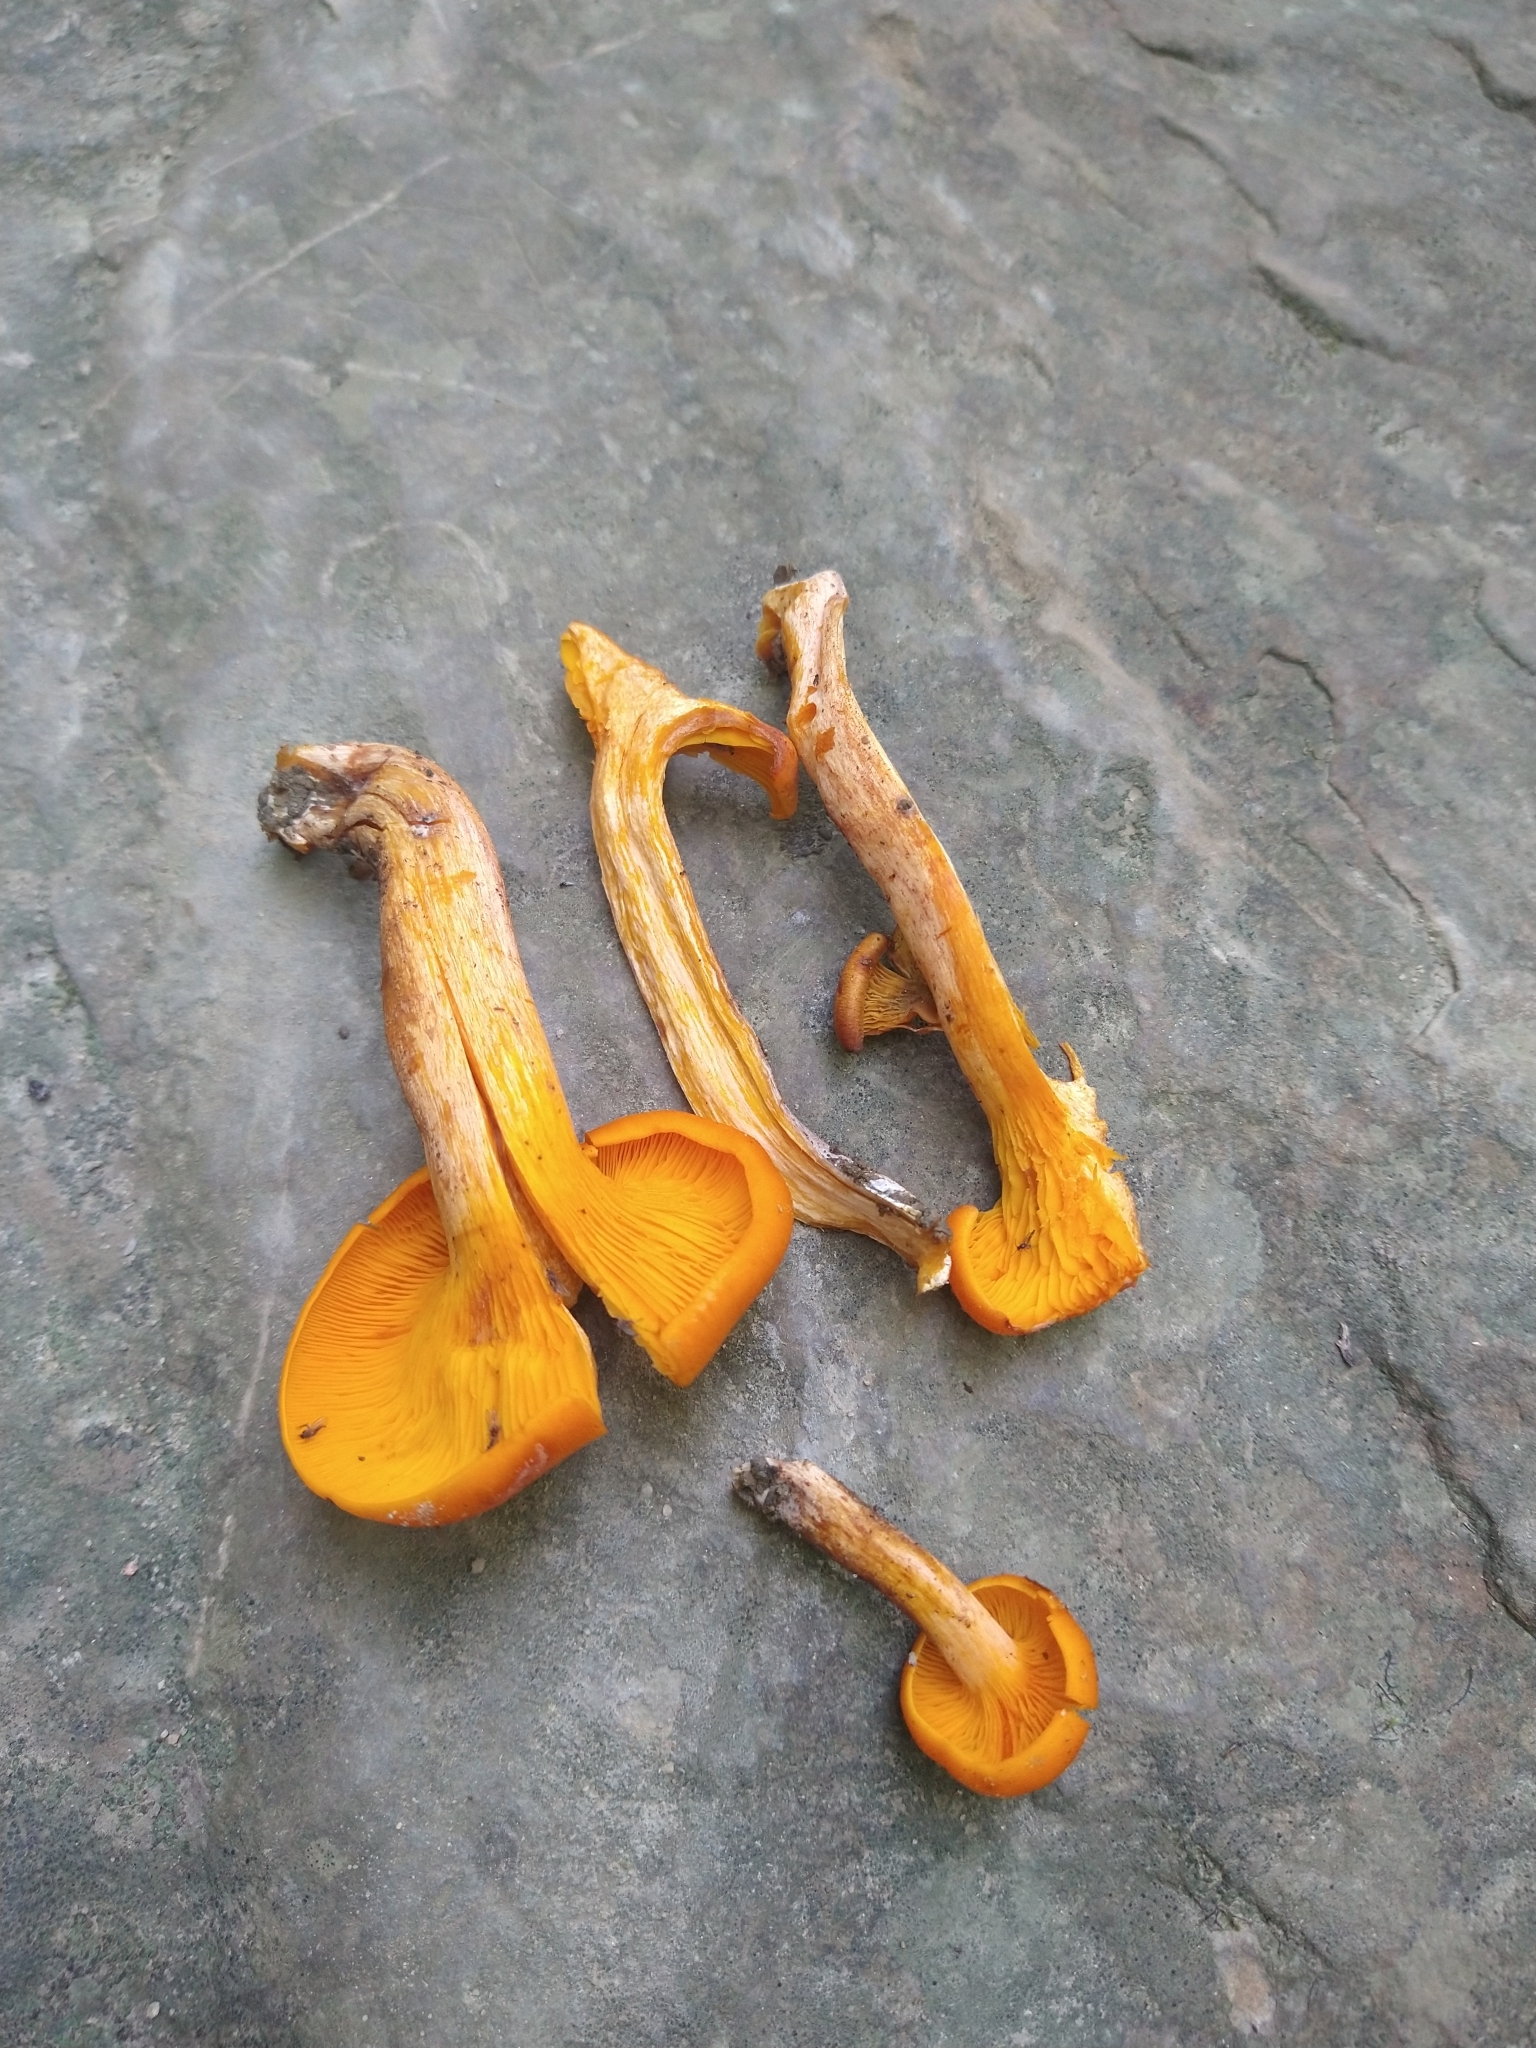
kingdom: Fungi
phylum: Basidiomycota
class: Agaricomycetes
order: Agaricales
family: Omphalotaceae
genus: Omphalotus
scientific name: Omphalotus illudens
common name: Jack o lantern
